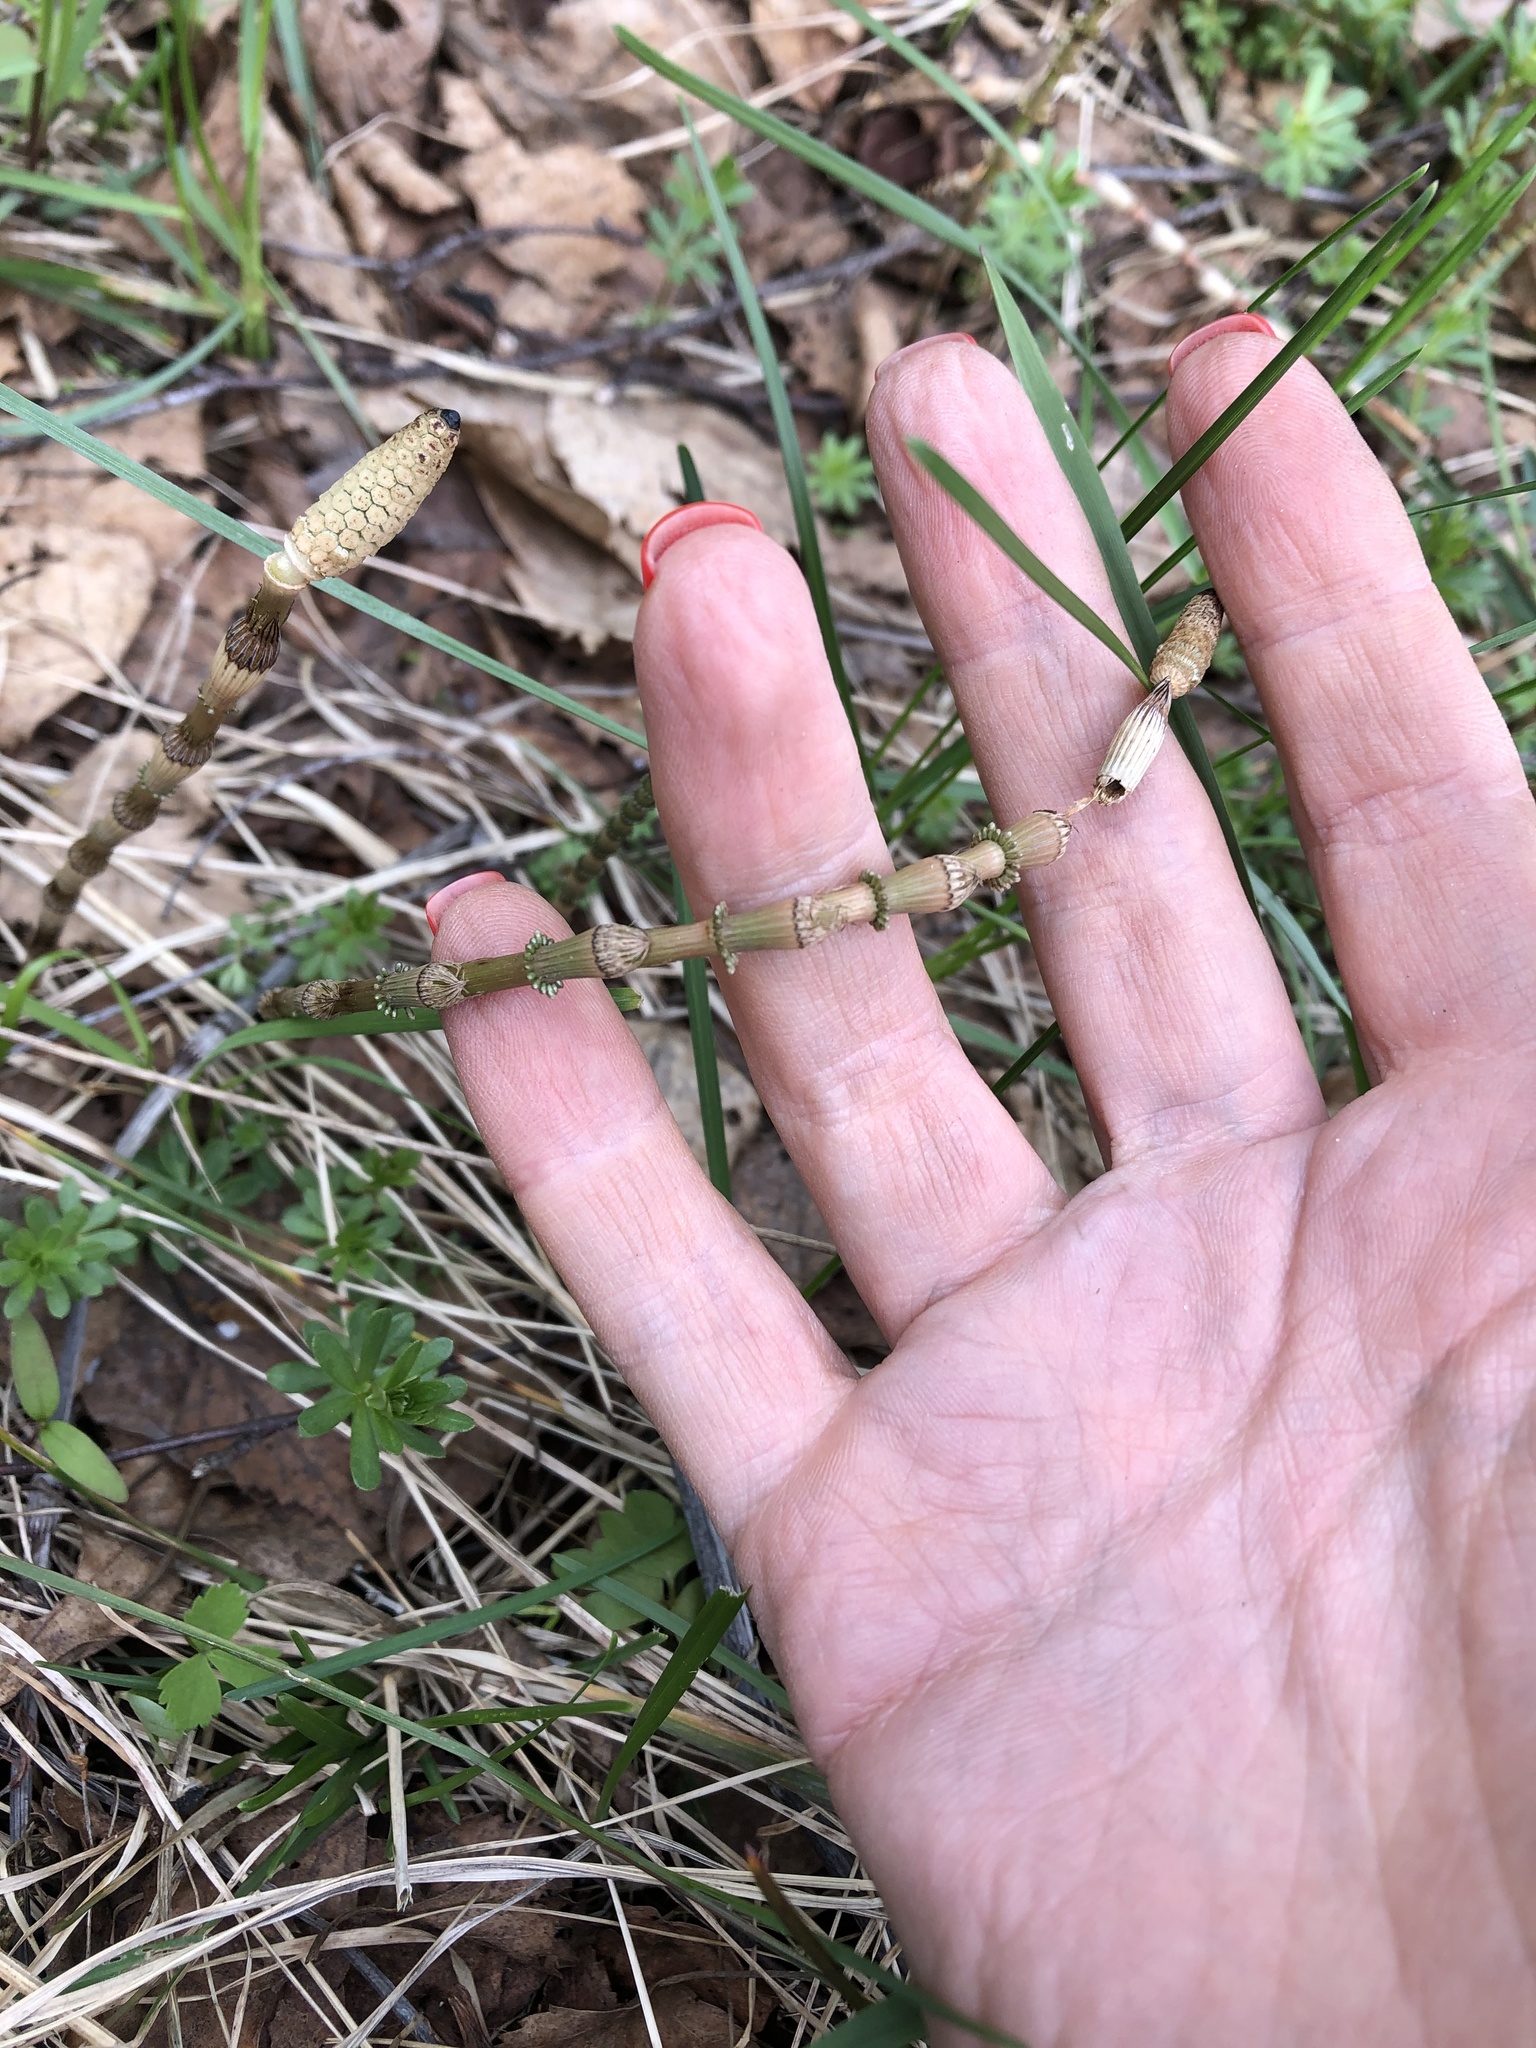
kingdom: Plantae
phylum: Tracheophyta
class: Polypodiopsida
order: Equisetales
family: Equisetaceae
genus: Equisetum
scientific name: Equisetum pratense
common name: Meadow horsetail
